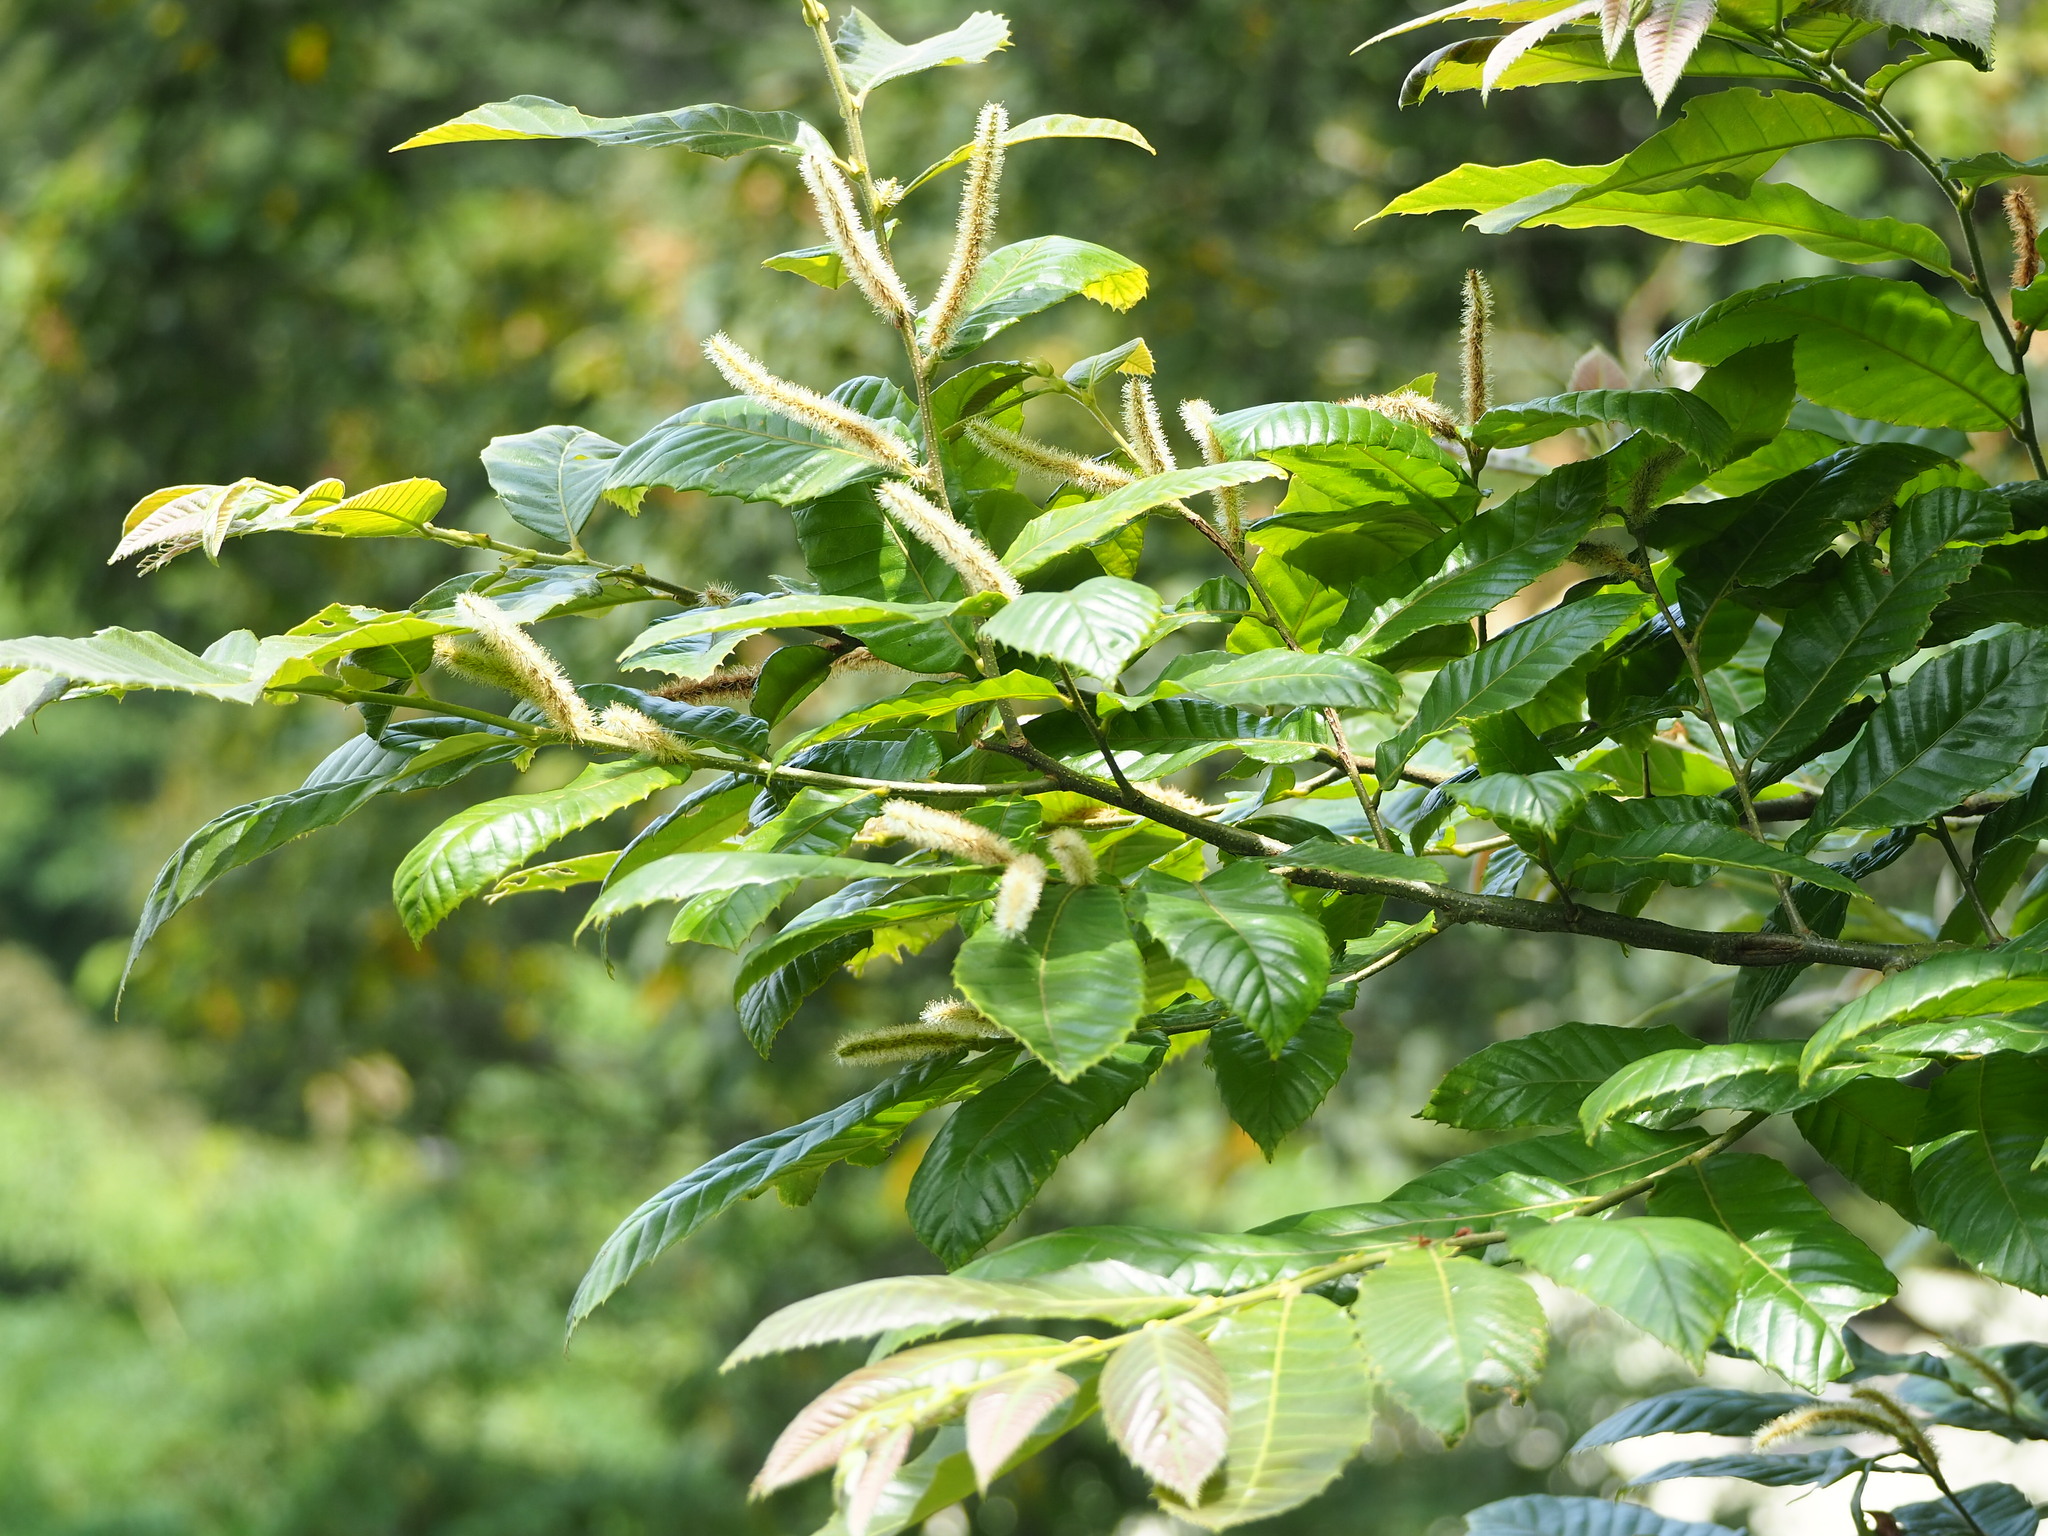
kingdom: Plantae
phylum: Tracheophyta
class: Magnoliopsida
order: Fagales
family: Fagaceae
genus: Castanea
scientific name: Castanea mollissima
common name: Chinese chestnut
